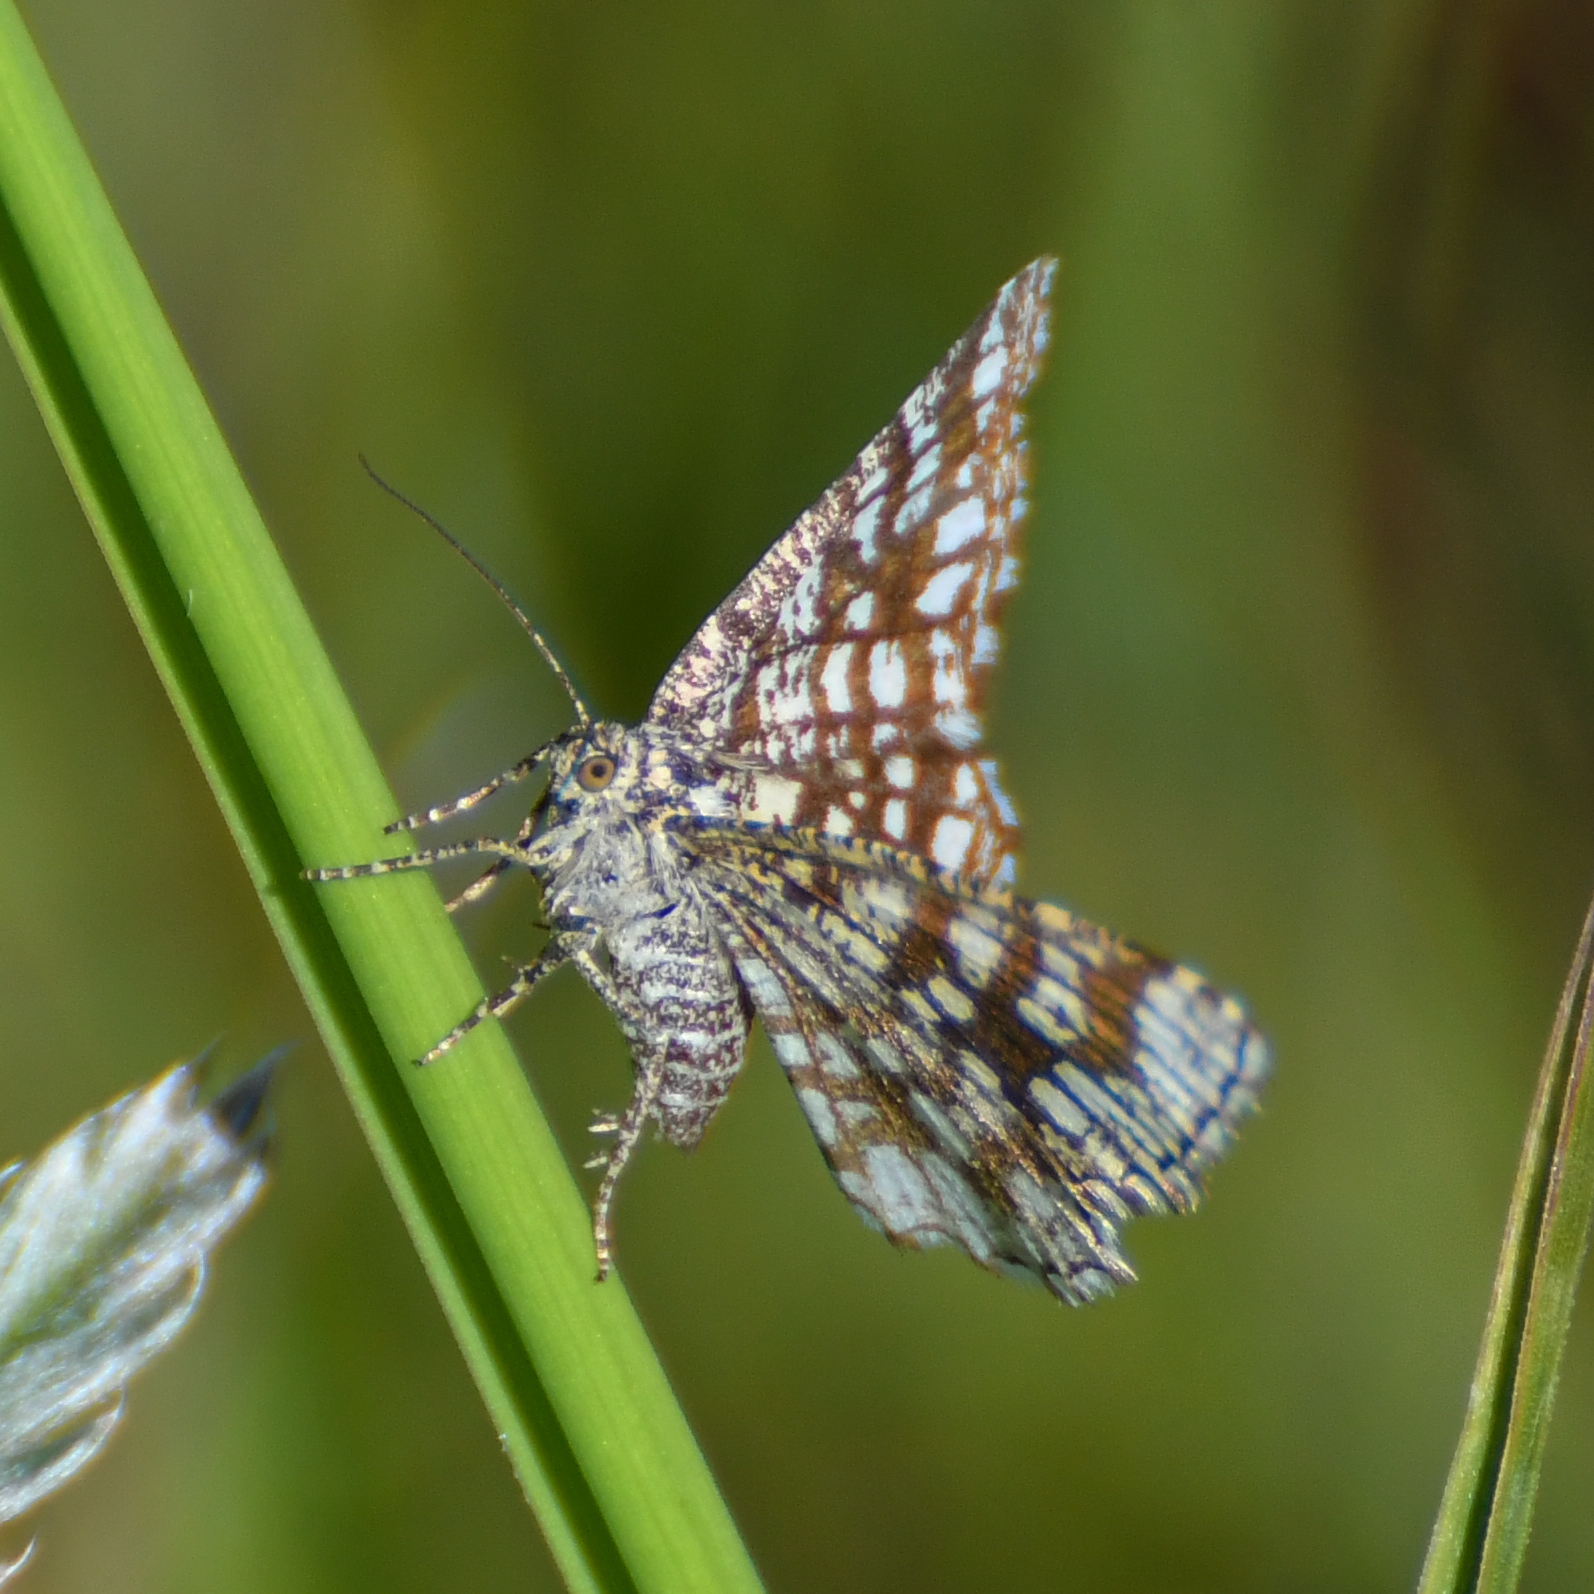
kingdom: Animalia
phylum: Arthropoda
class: Insecta
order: Lepidoptera
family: Geometridae
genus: Chiasmia
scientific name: Chiasmia clathrata
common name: Latticed heath
